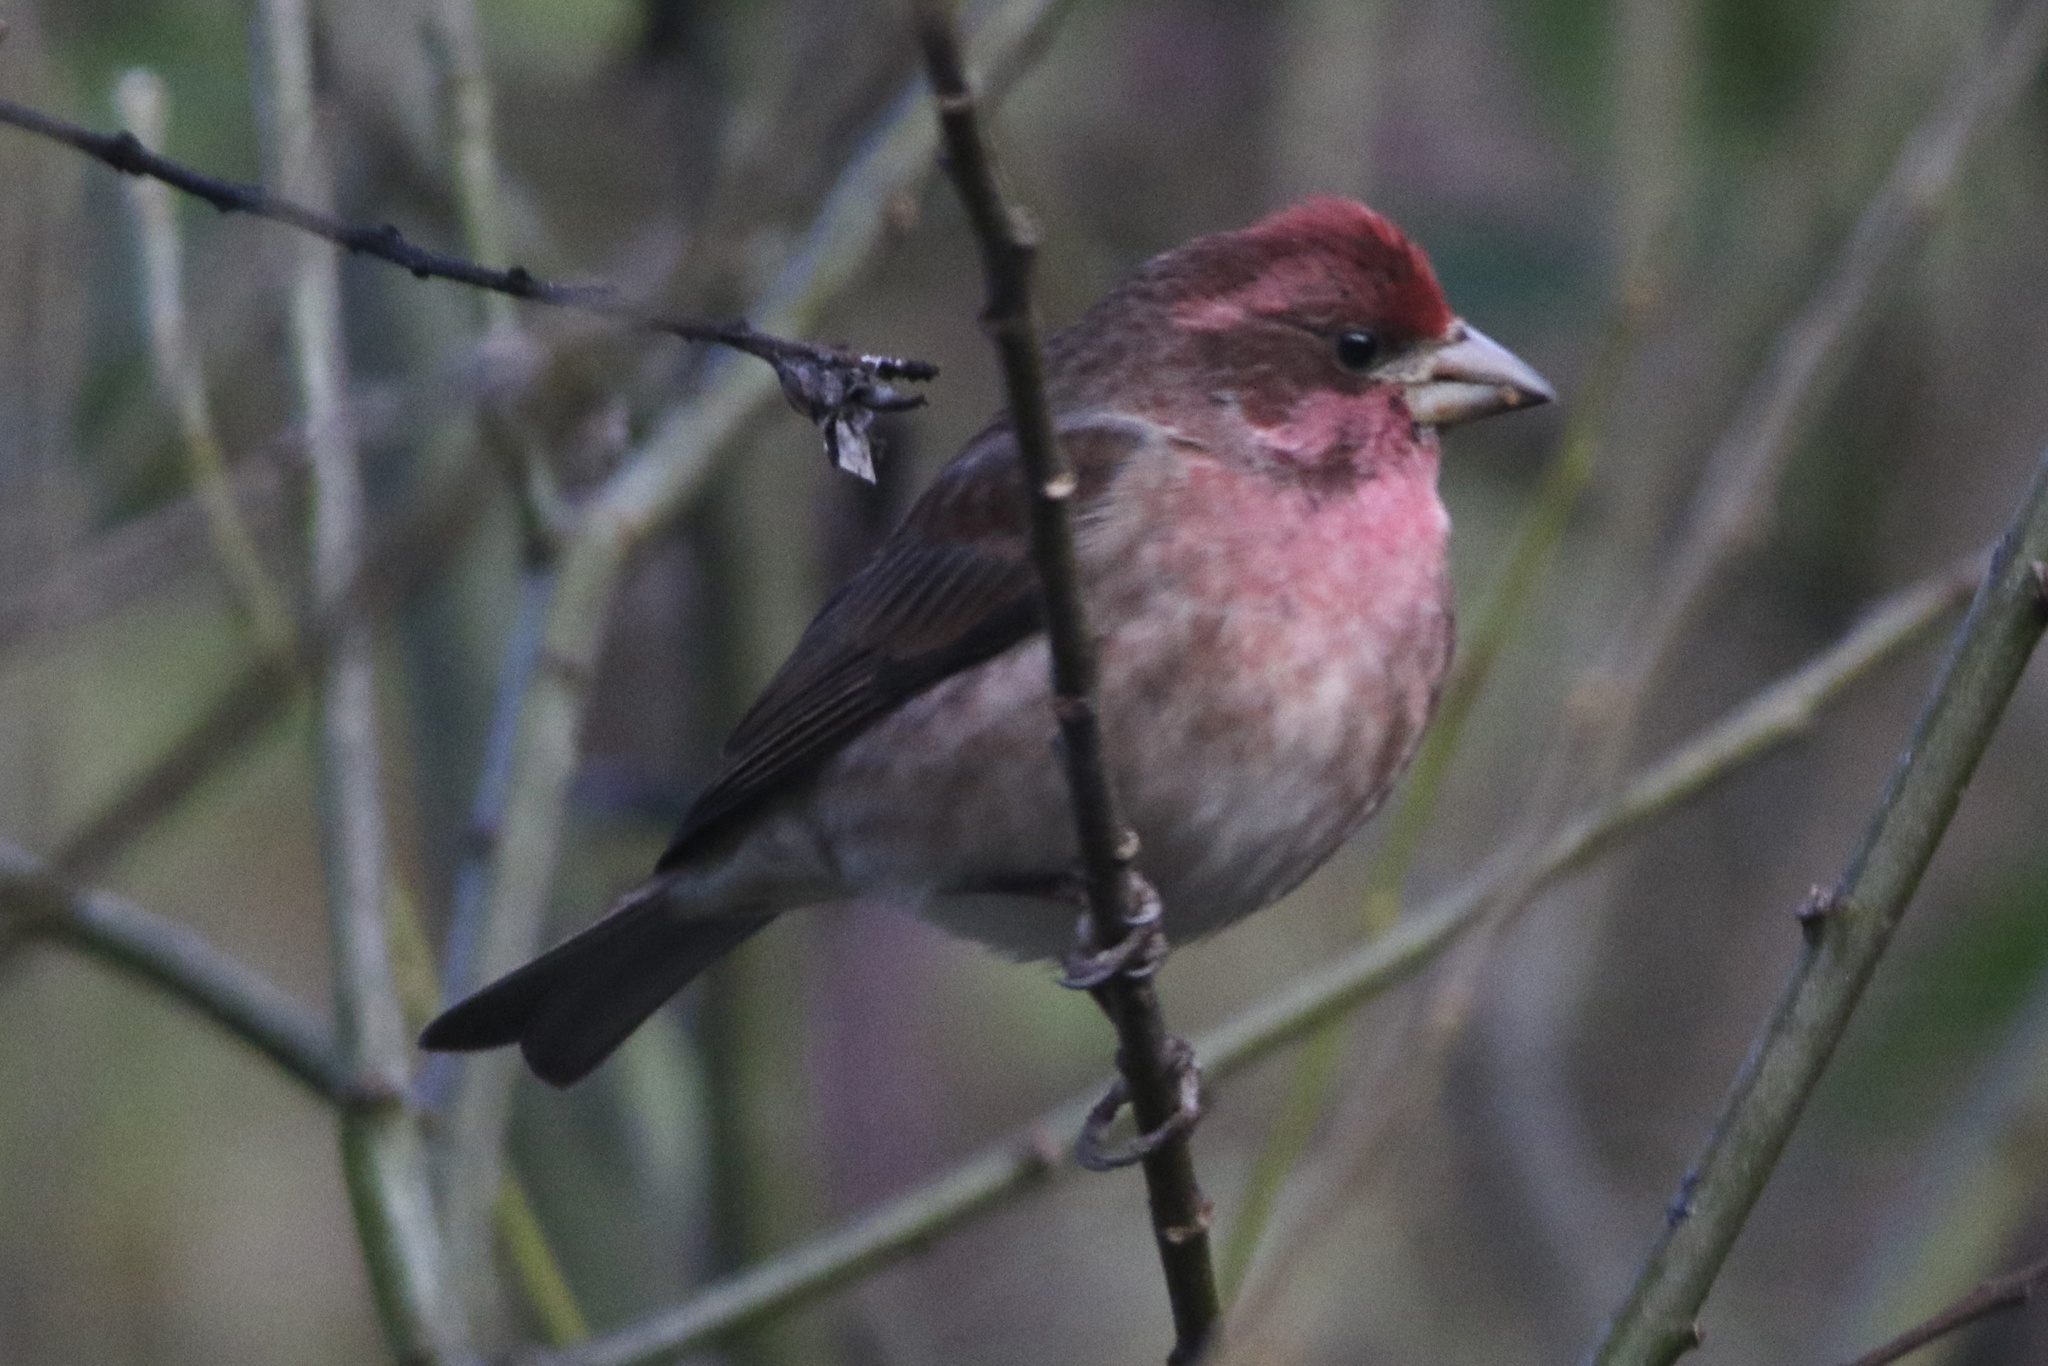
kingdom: Animalia
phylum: Chordata
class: Aves
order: Passeriformes
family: Fringillidae
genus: Haemorhous
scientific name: Haemorhous purpureus
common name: Purple finch
